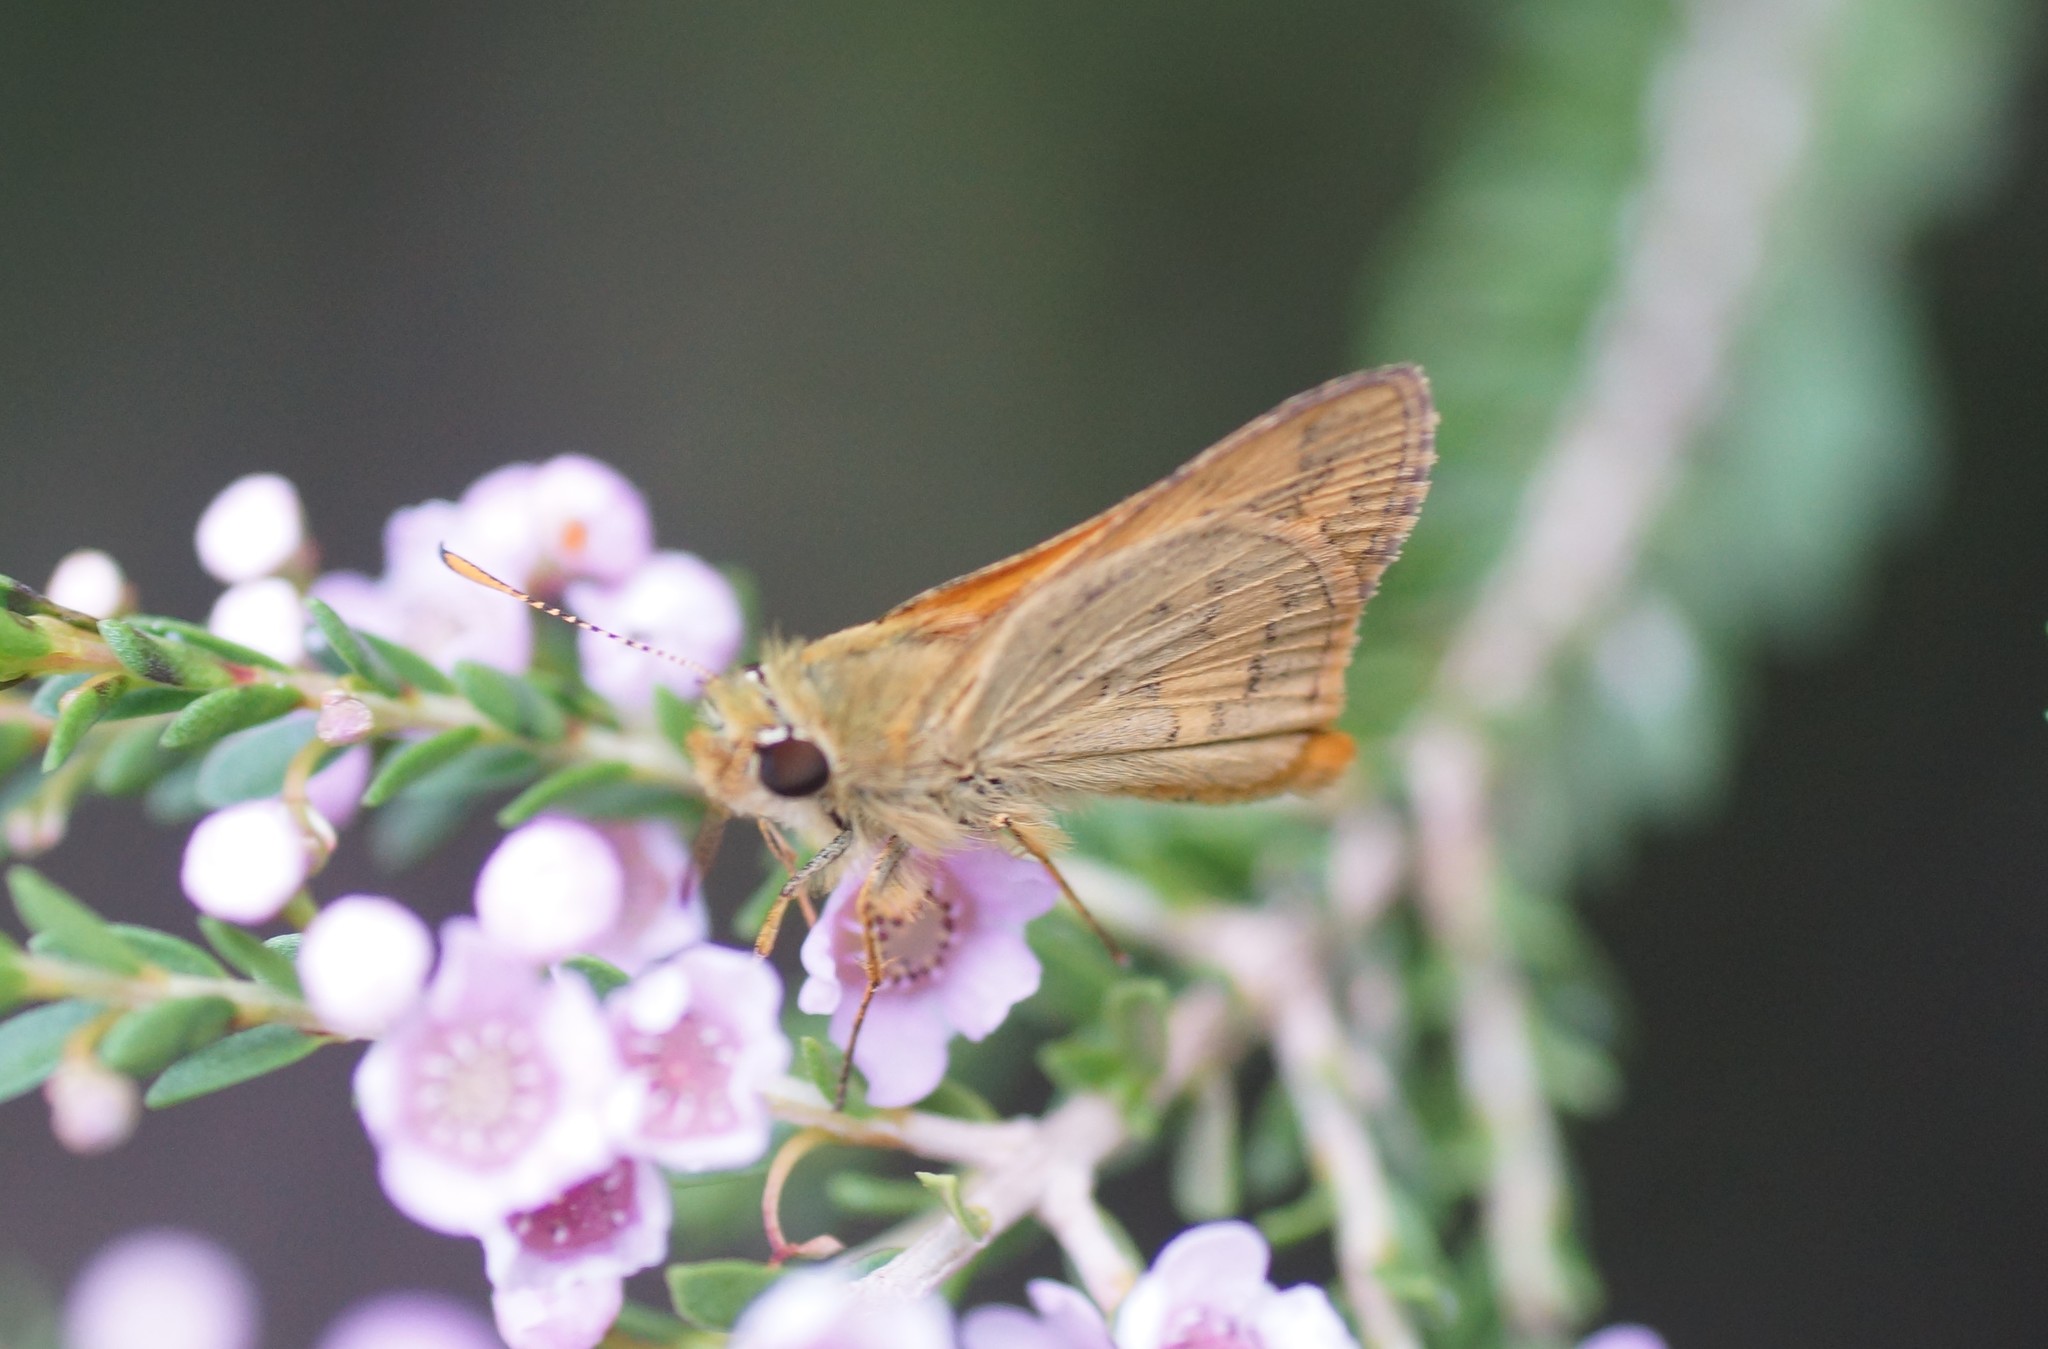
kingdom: Animalia
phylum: Arthropoda
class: Insecta
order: Lepidoptera
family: Hesperiidae
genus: Ocybadistes
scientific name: Ocybadistes walkeri
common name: Yellow-banded dart
